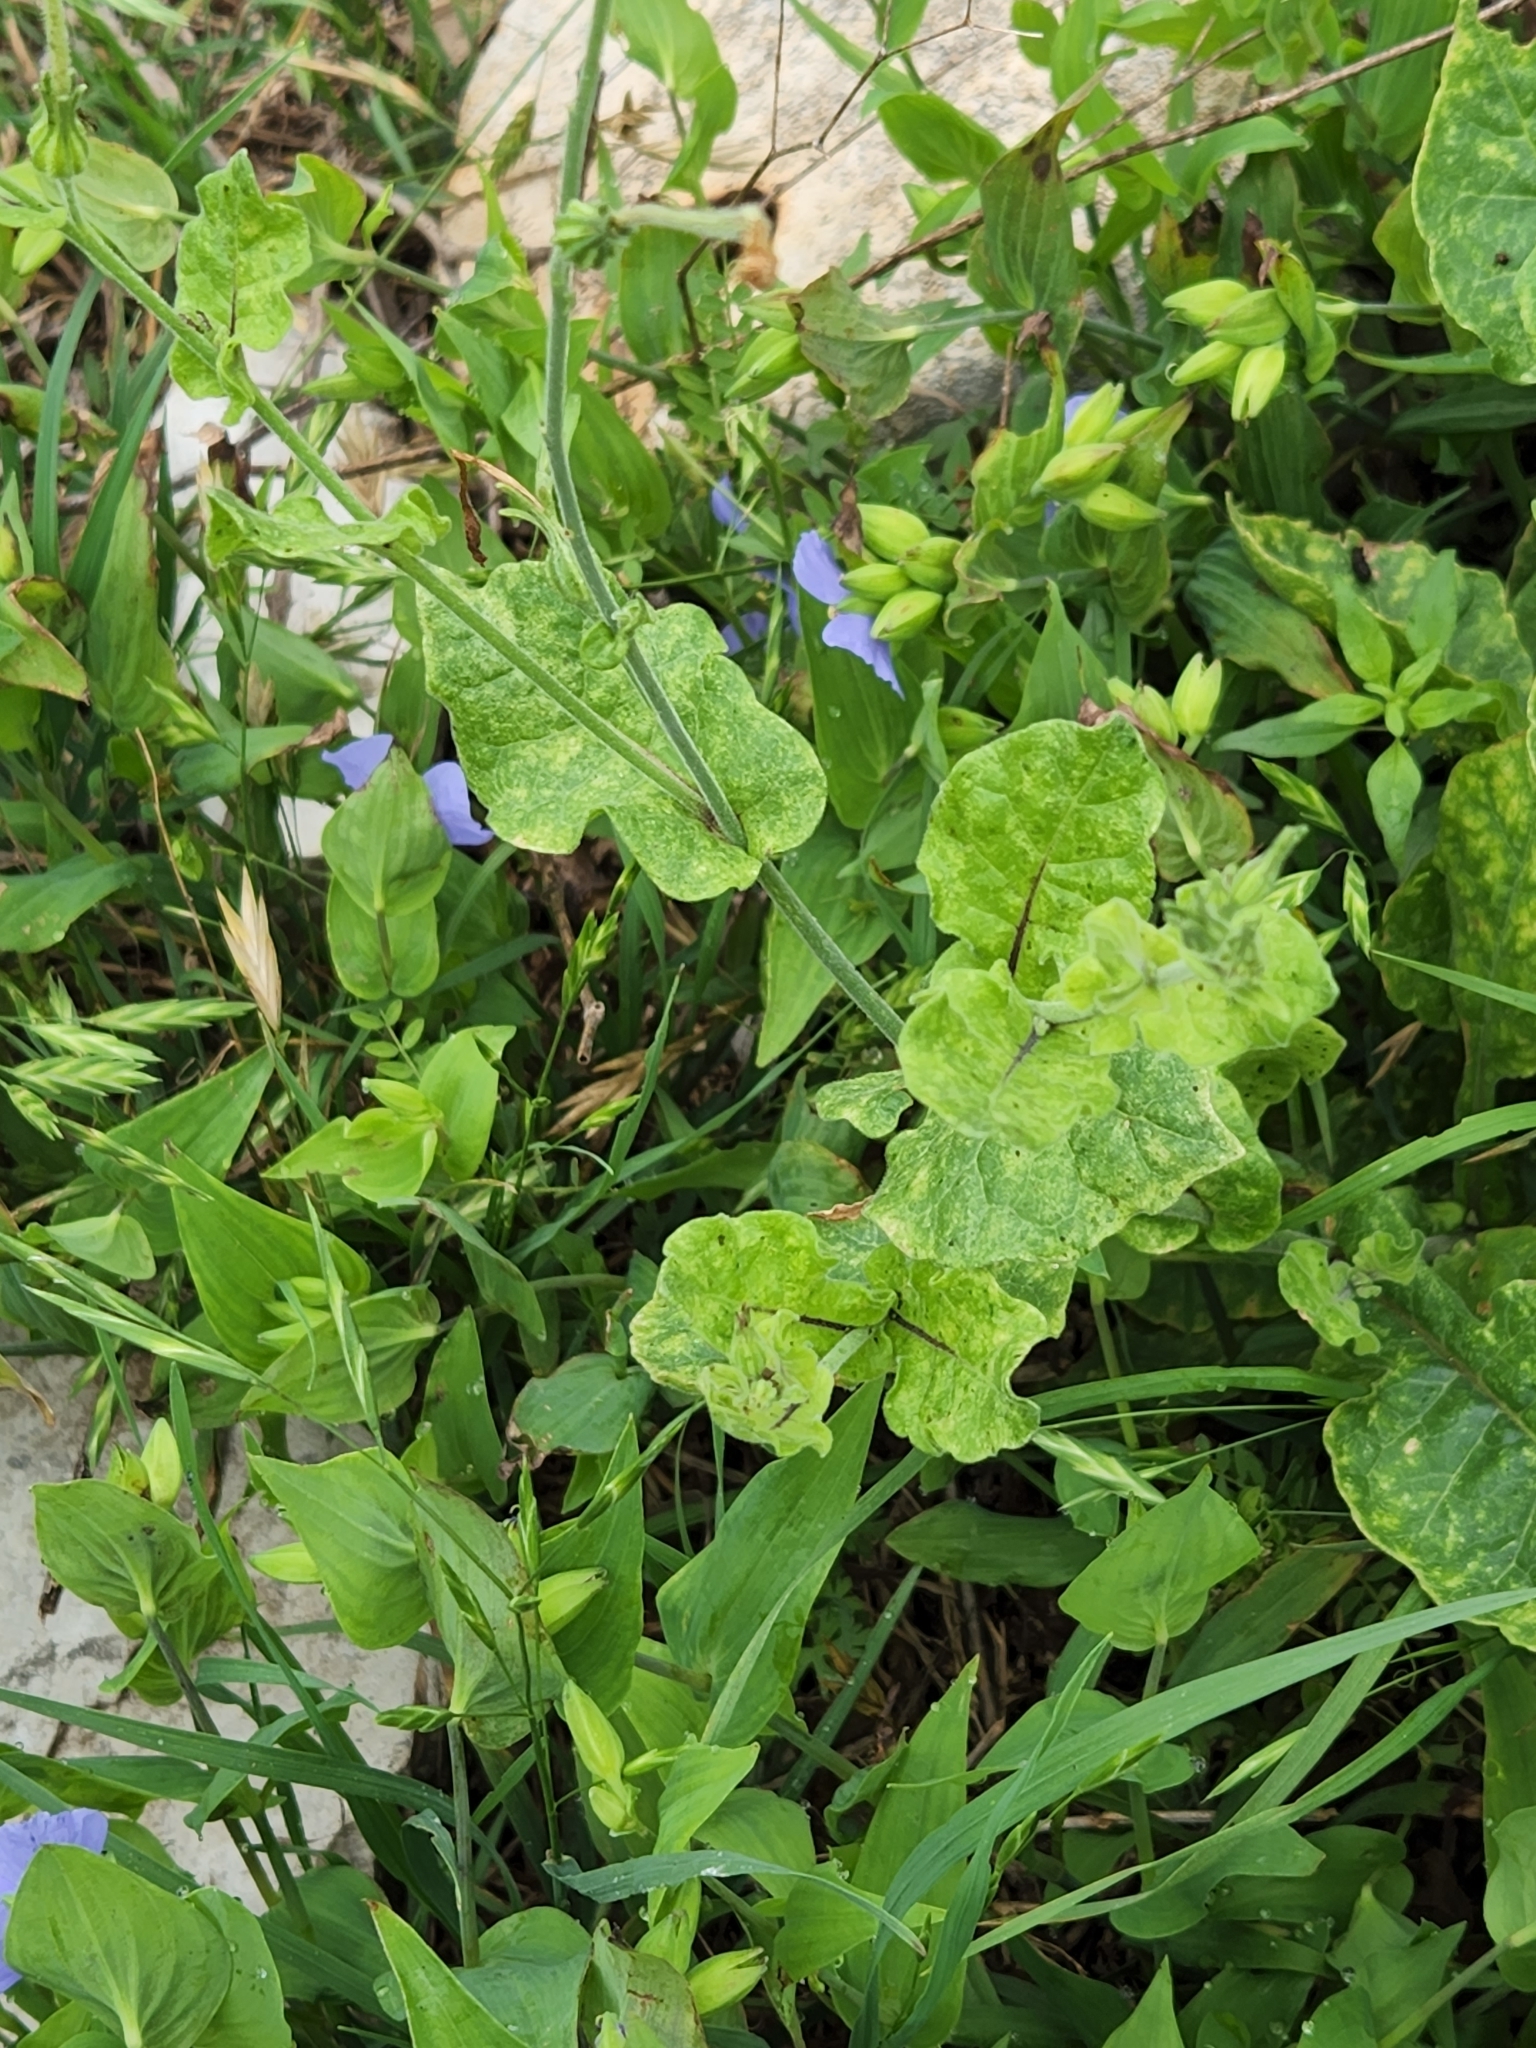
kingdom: Plantae
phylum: Tracheophyta
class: Magnoliopsida
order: Solanales
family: Solanaceae
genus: Nicotiana
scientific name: Nicotiana repanda
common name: Fiddle-leaf tobacco
